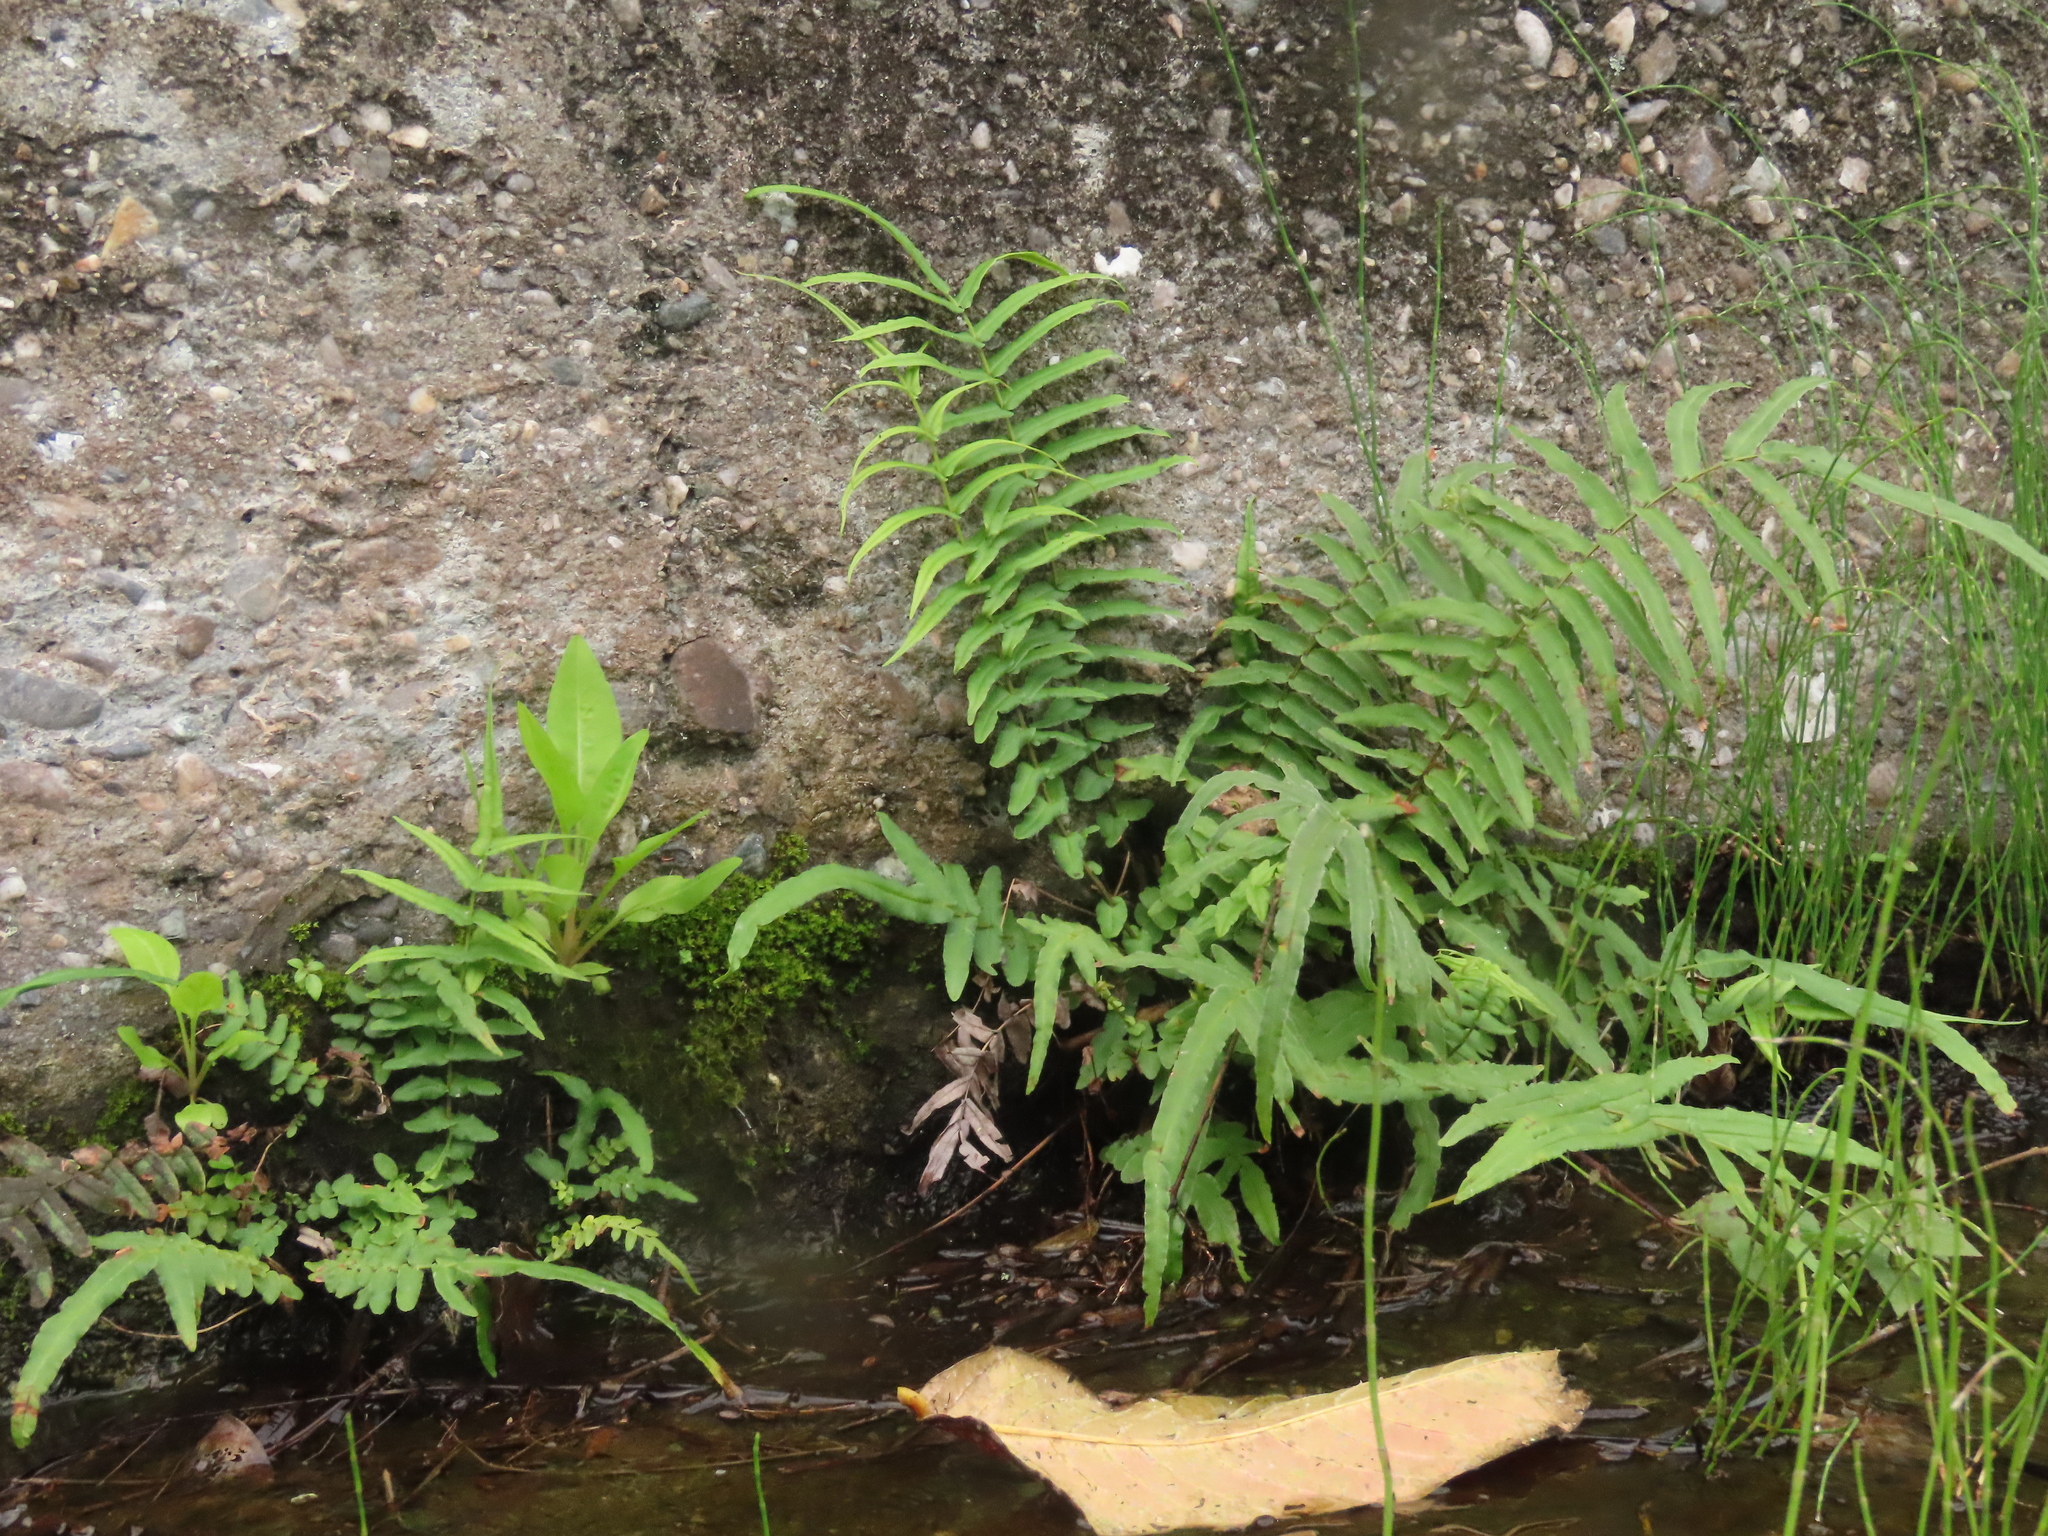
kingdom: Plantae
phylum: Tracheophyta
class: Polypodiopsida
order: Polypodiales
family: Pteridaceae
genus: Pteris
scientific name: Pteris vittata
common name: Ladder brake
